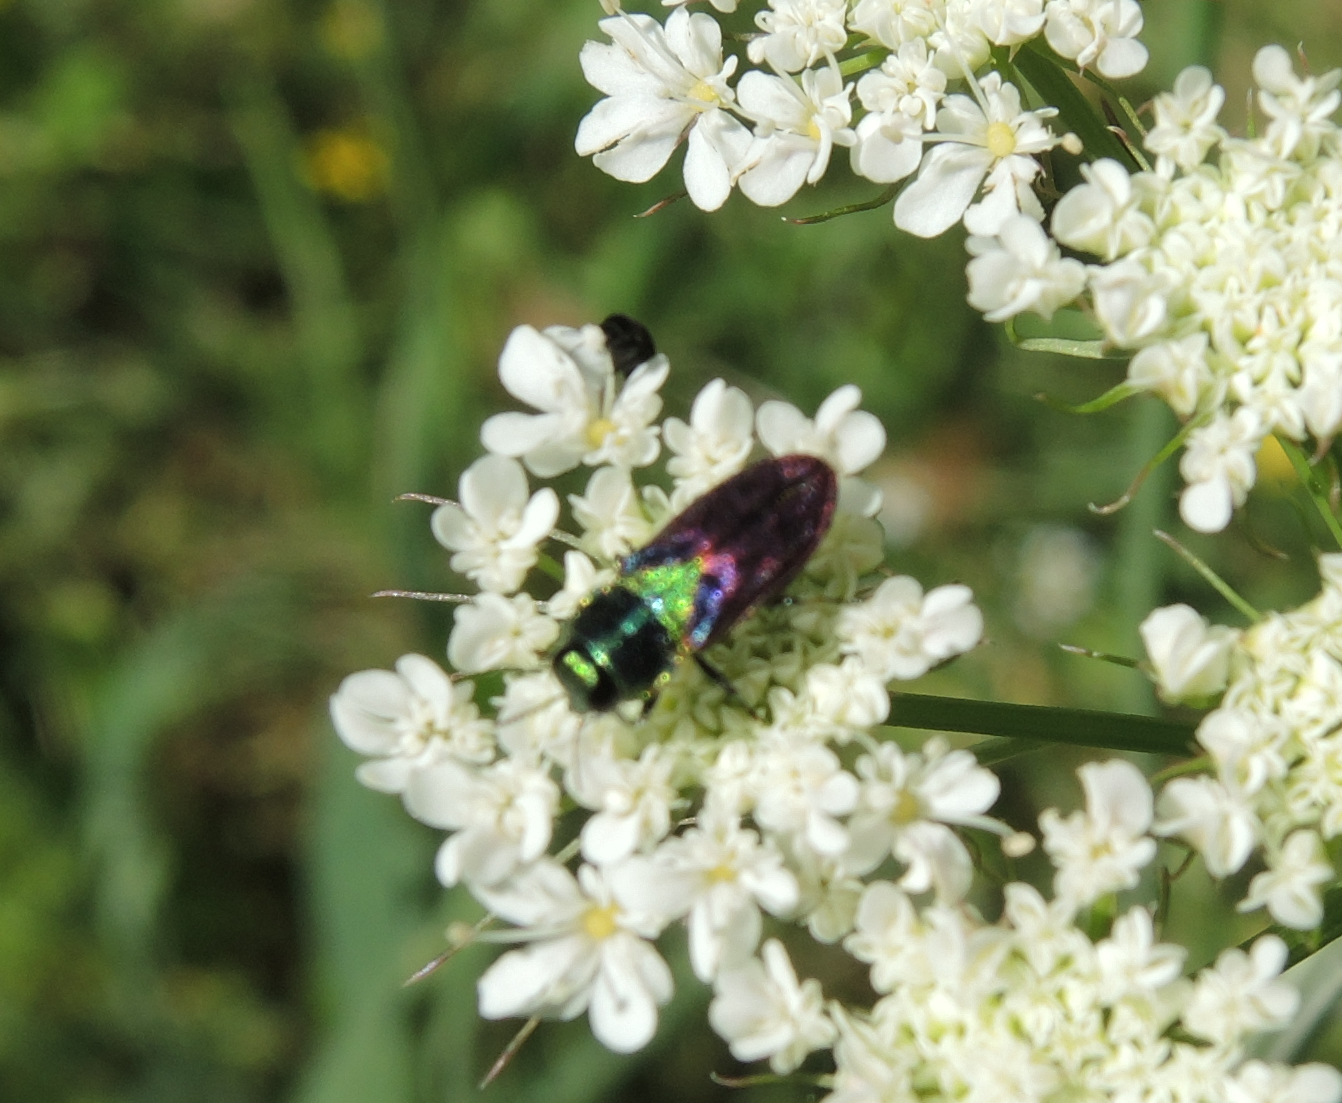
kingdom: Animalia
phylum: Arthropoda
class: Insecta
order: Coleoptera
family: Buprestidae
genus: Anthaxia
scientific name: Anthaxia bicolor
